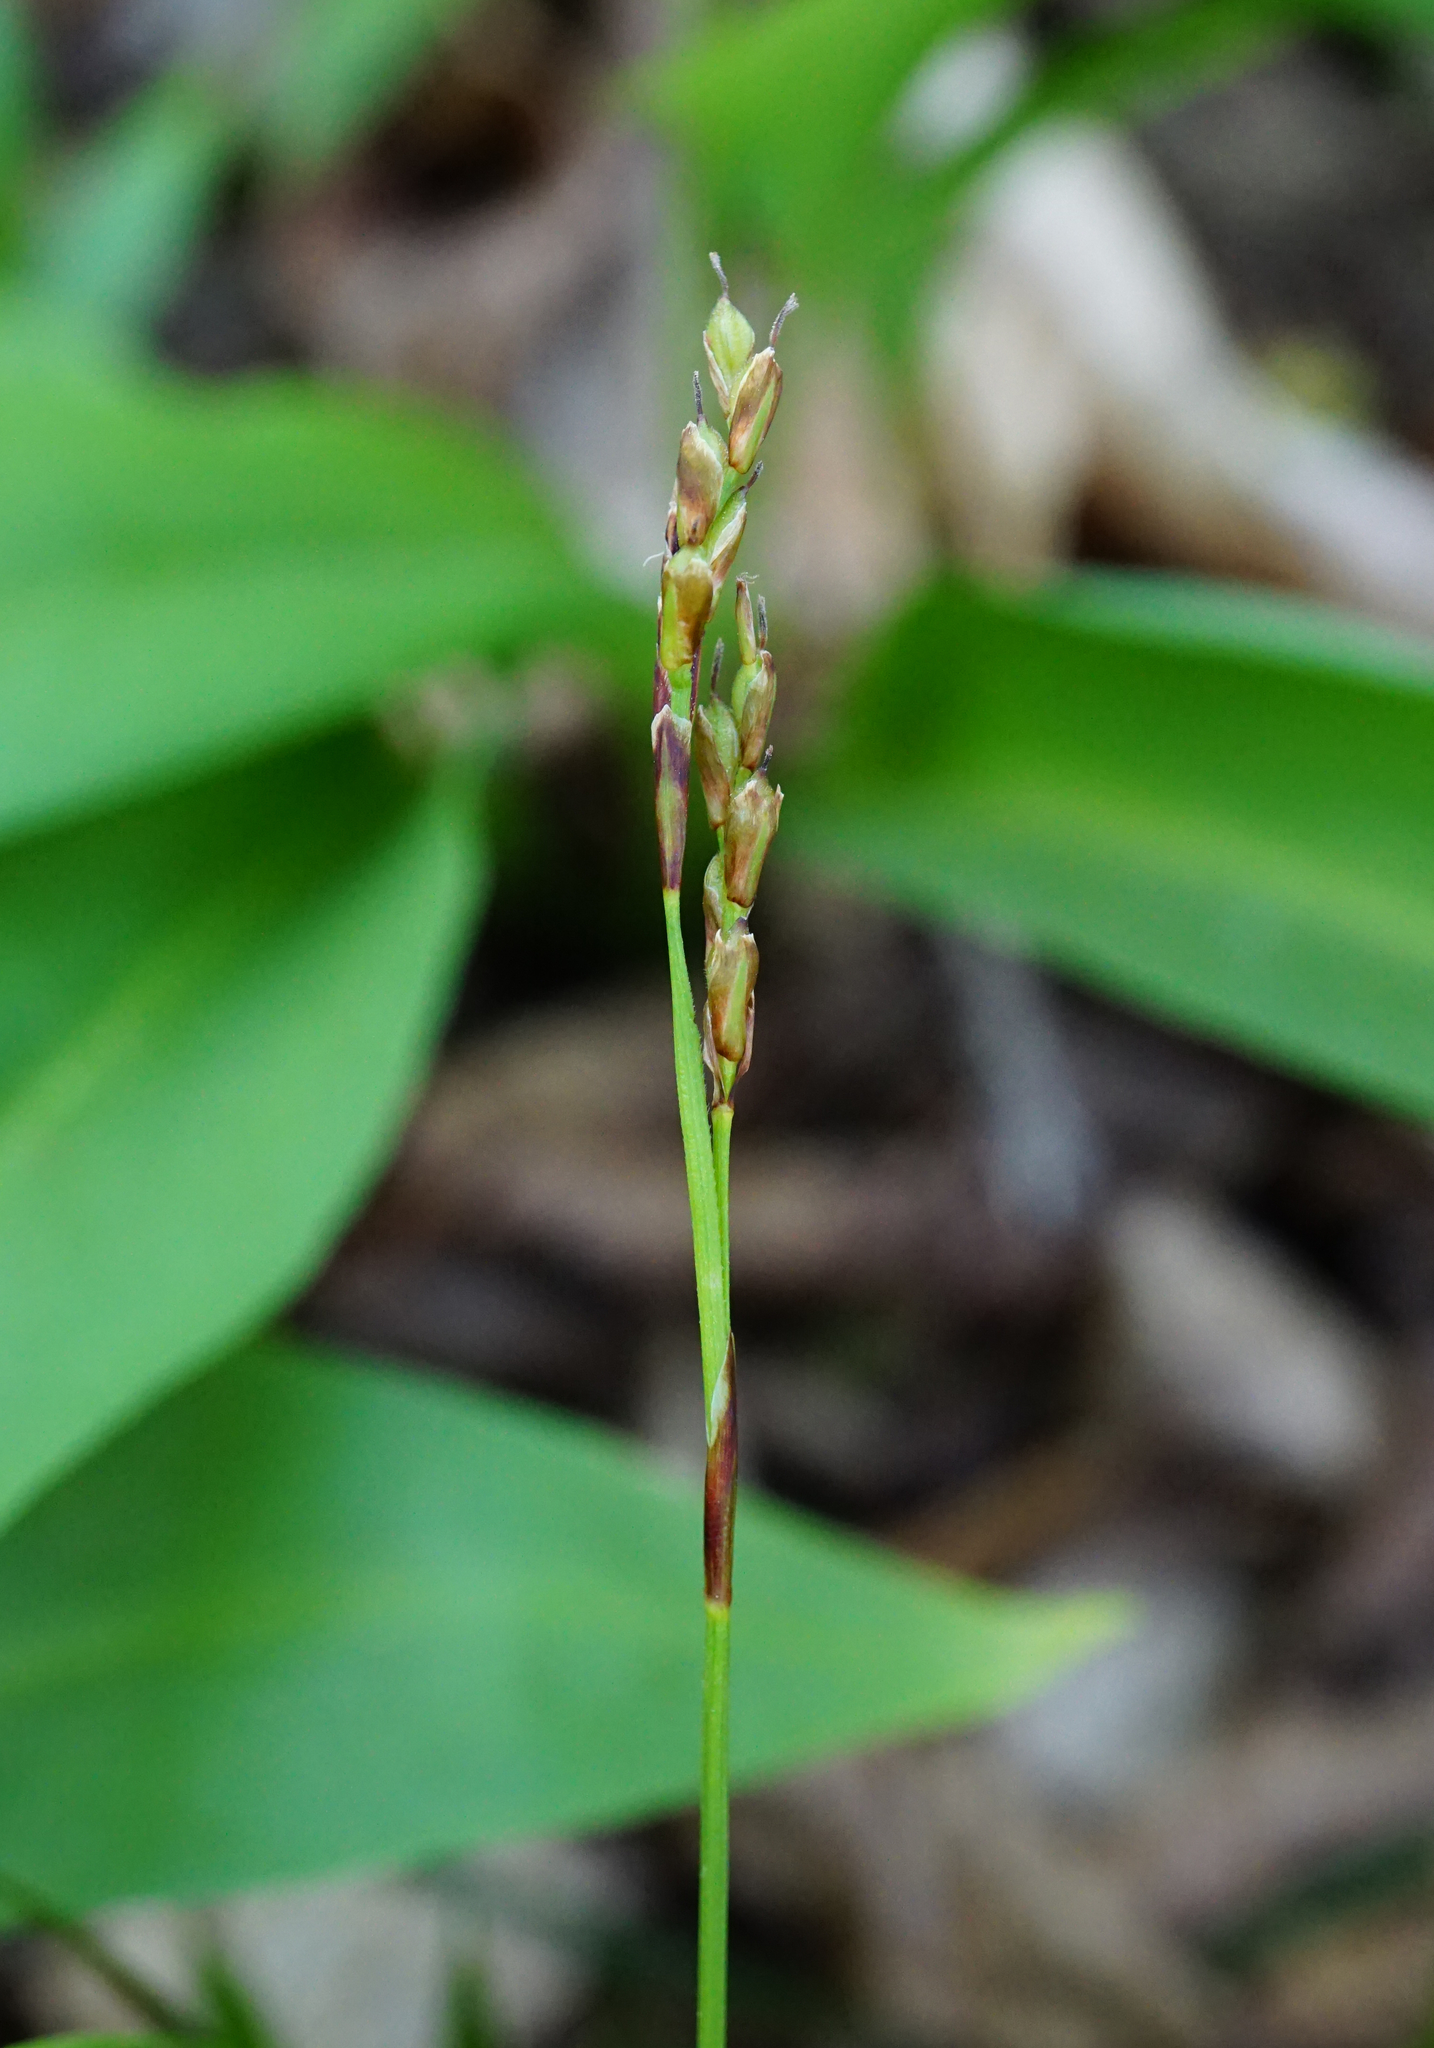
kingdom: Plantae
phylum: Tracheophyta
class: Liliopsida
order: Poales
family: Cyperaceae
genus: Carex
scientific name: Carex digitata
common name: Fingered sedge
